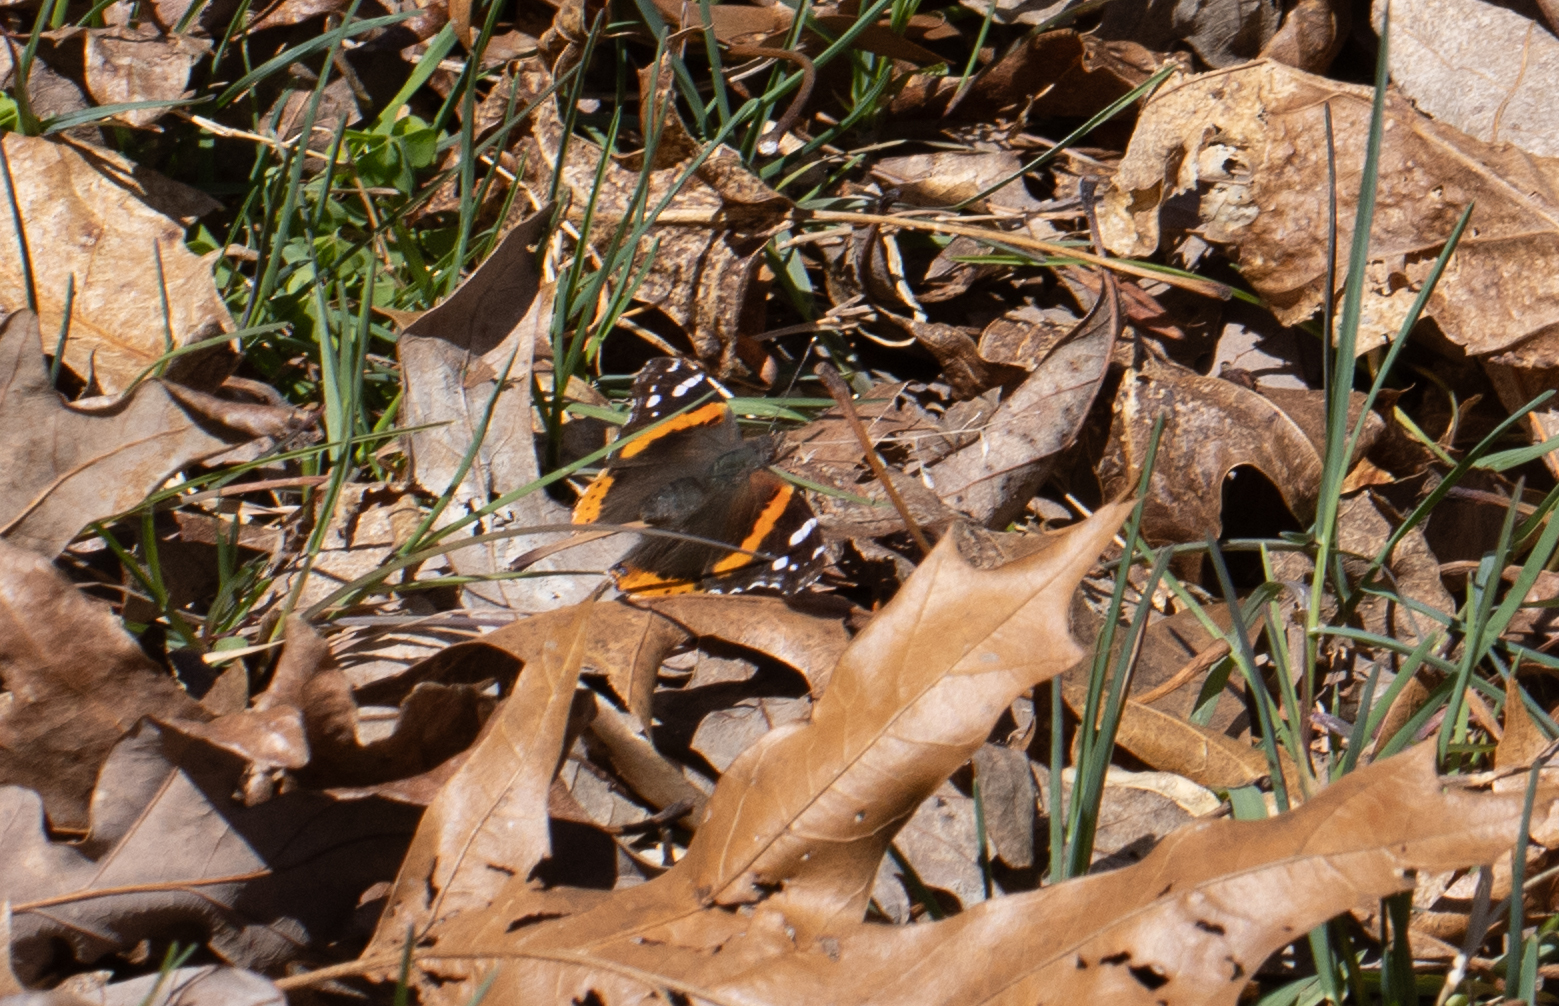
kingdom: Animalia
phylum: Arthropoda
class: Insecta
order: Lepidoptera
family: Nymphalidae
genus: Vanessa
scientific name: Vanessa atalanta
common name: Red admiral
